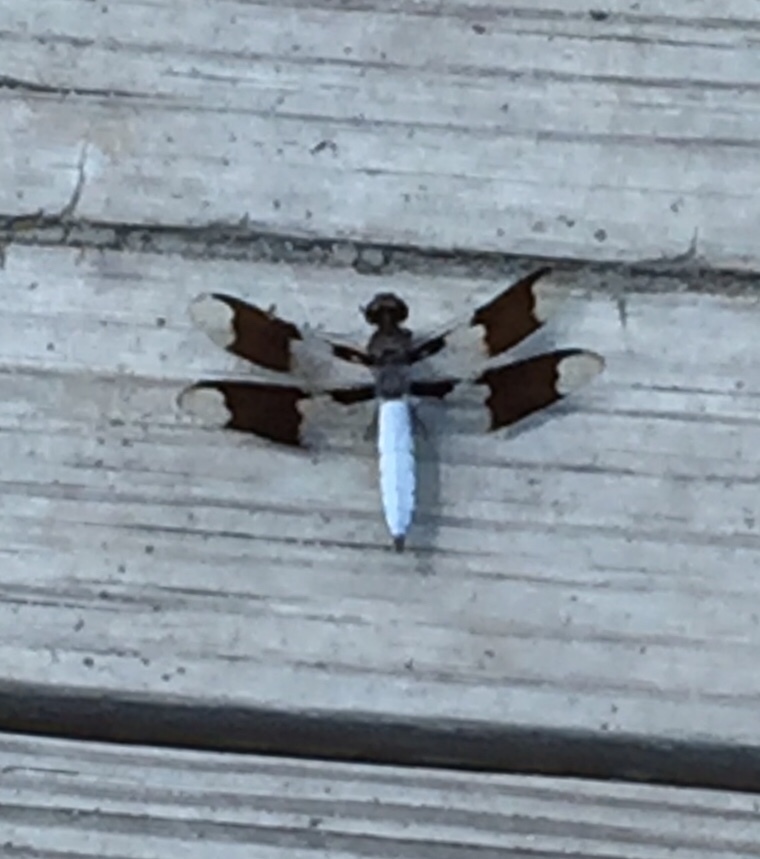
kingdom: Animalia
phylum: Arthropoda
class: Insecta
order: Odonata
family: Libellulidae
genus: Plathemis
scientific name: Plathemis lydia
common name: Common whitetail
